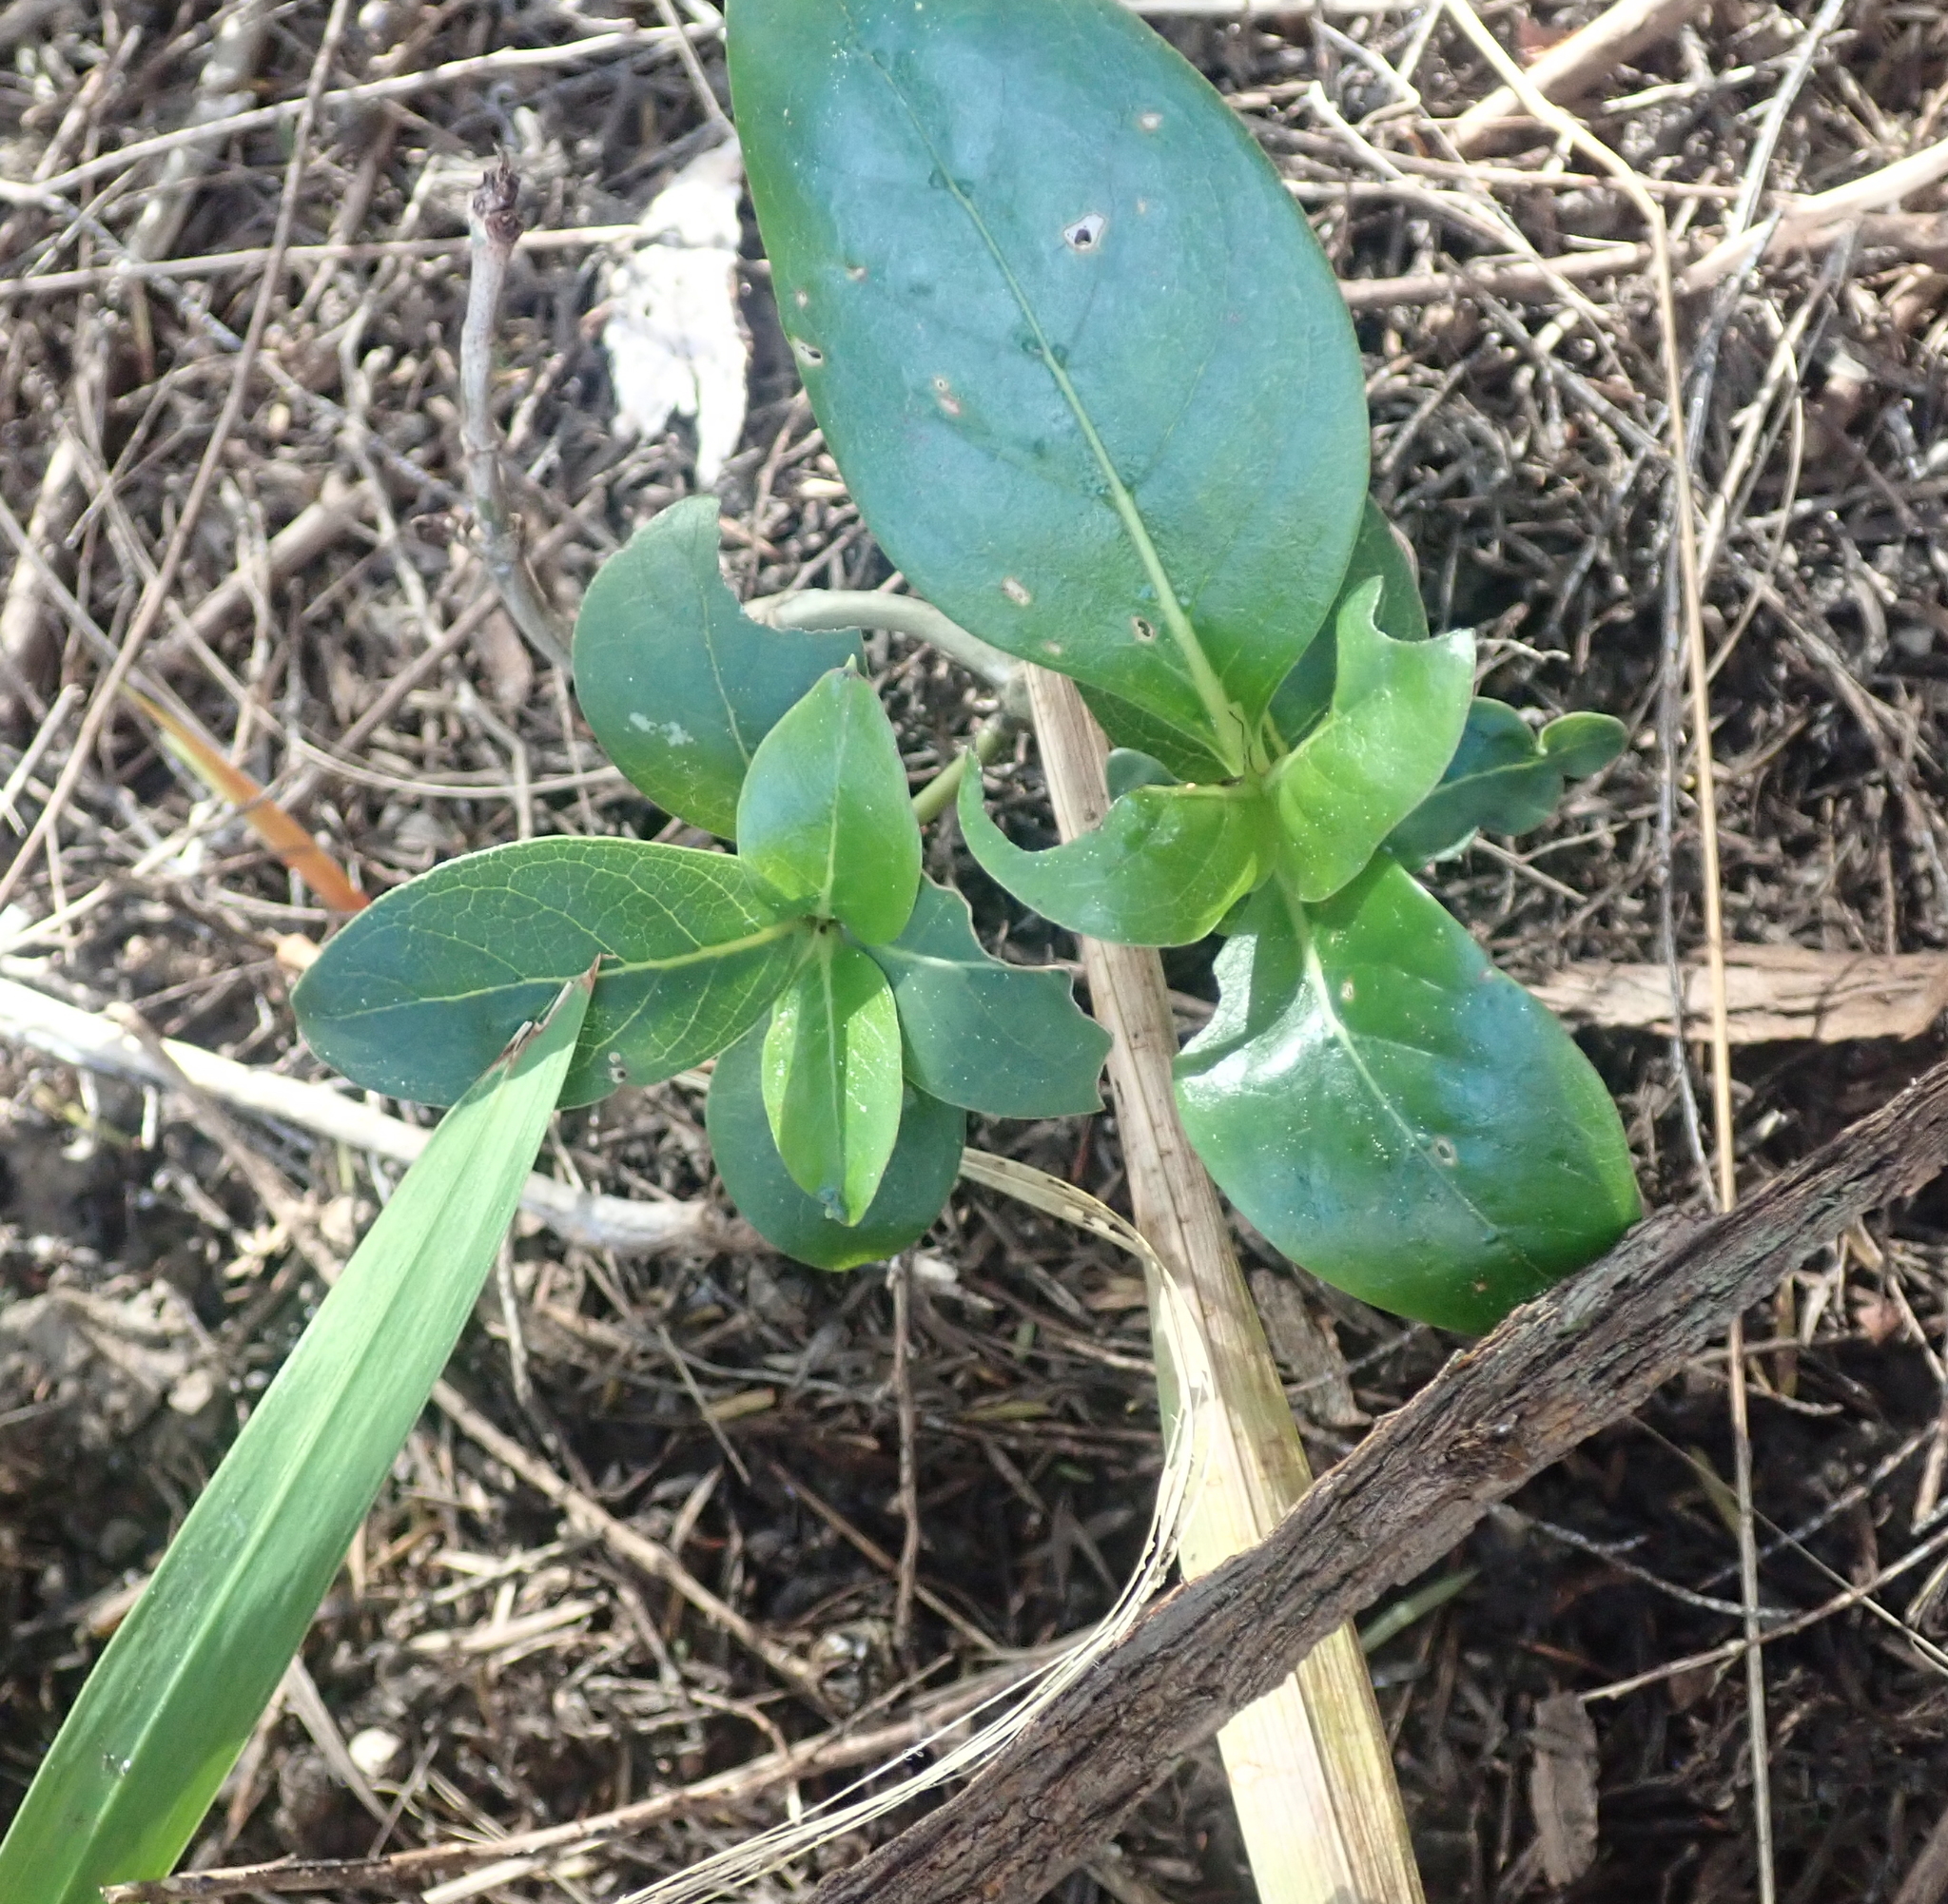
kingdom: Plantae
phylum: Tracheophyta
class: Magnoliopsida
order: Gentianales
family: Rubiaceae
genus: Coprosma
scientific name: Coprosma robusta
